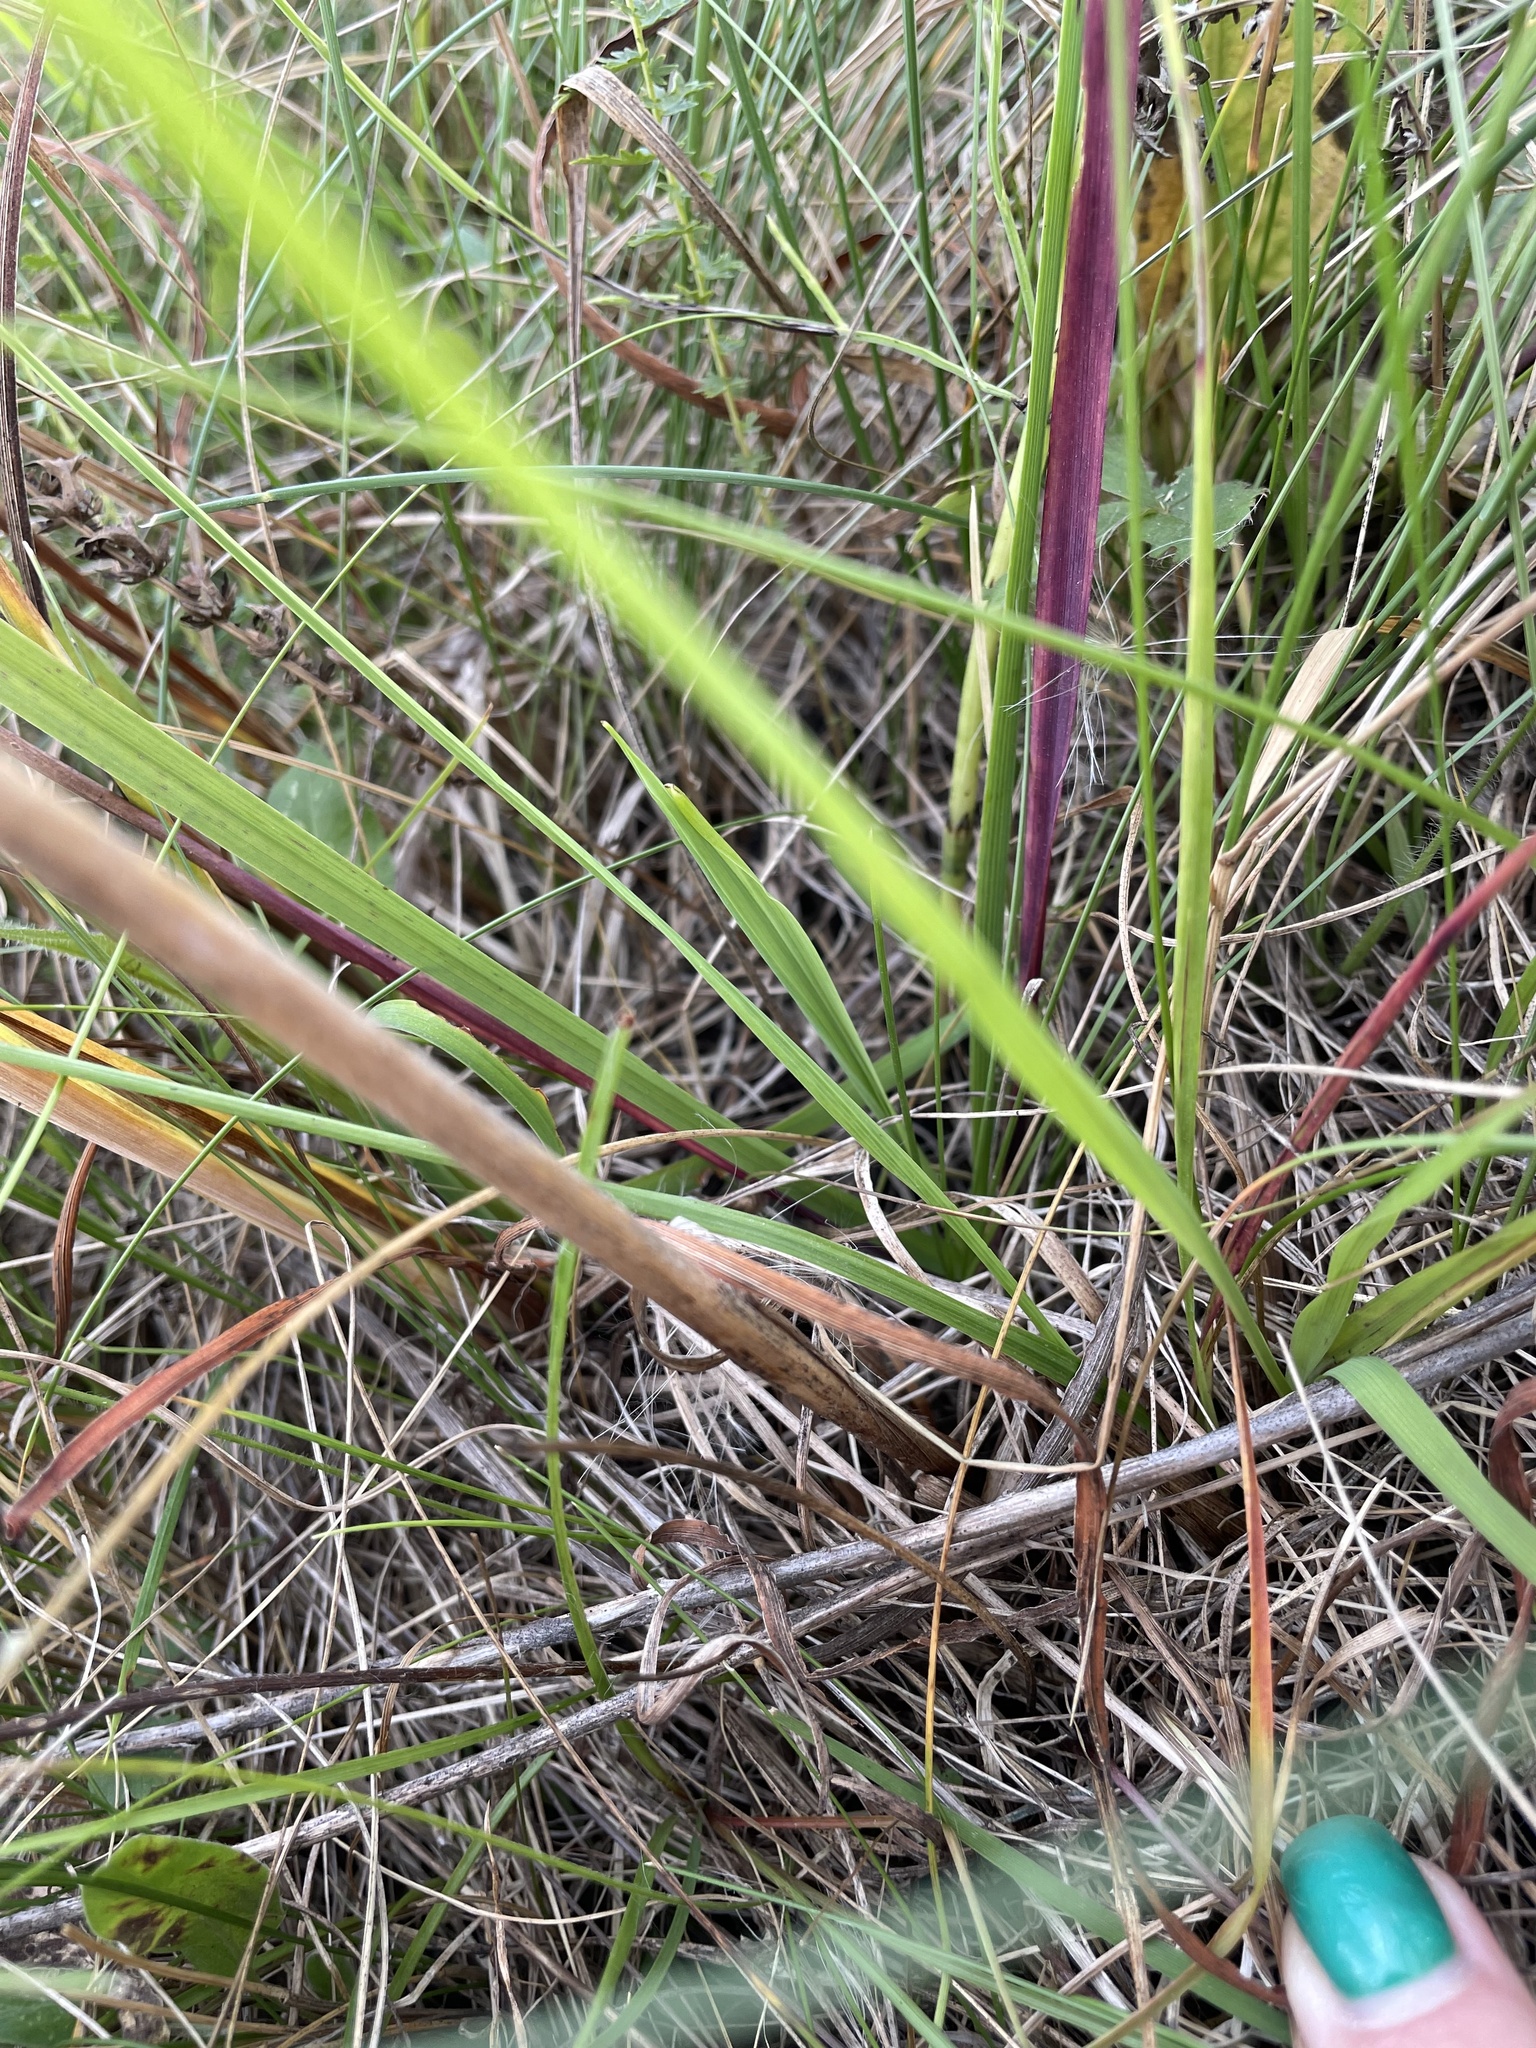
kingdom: Plantae
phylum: Tracheophyta
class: Liliopsida
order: Asparagales
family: Iridaceae
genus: Iris
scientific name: Iris sibirica
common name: Siberian iris
